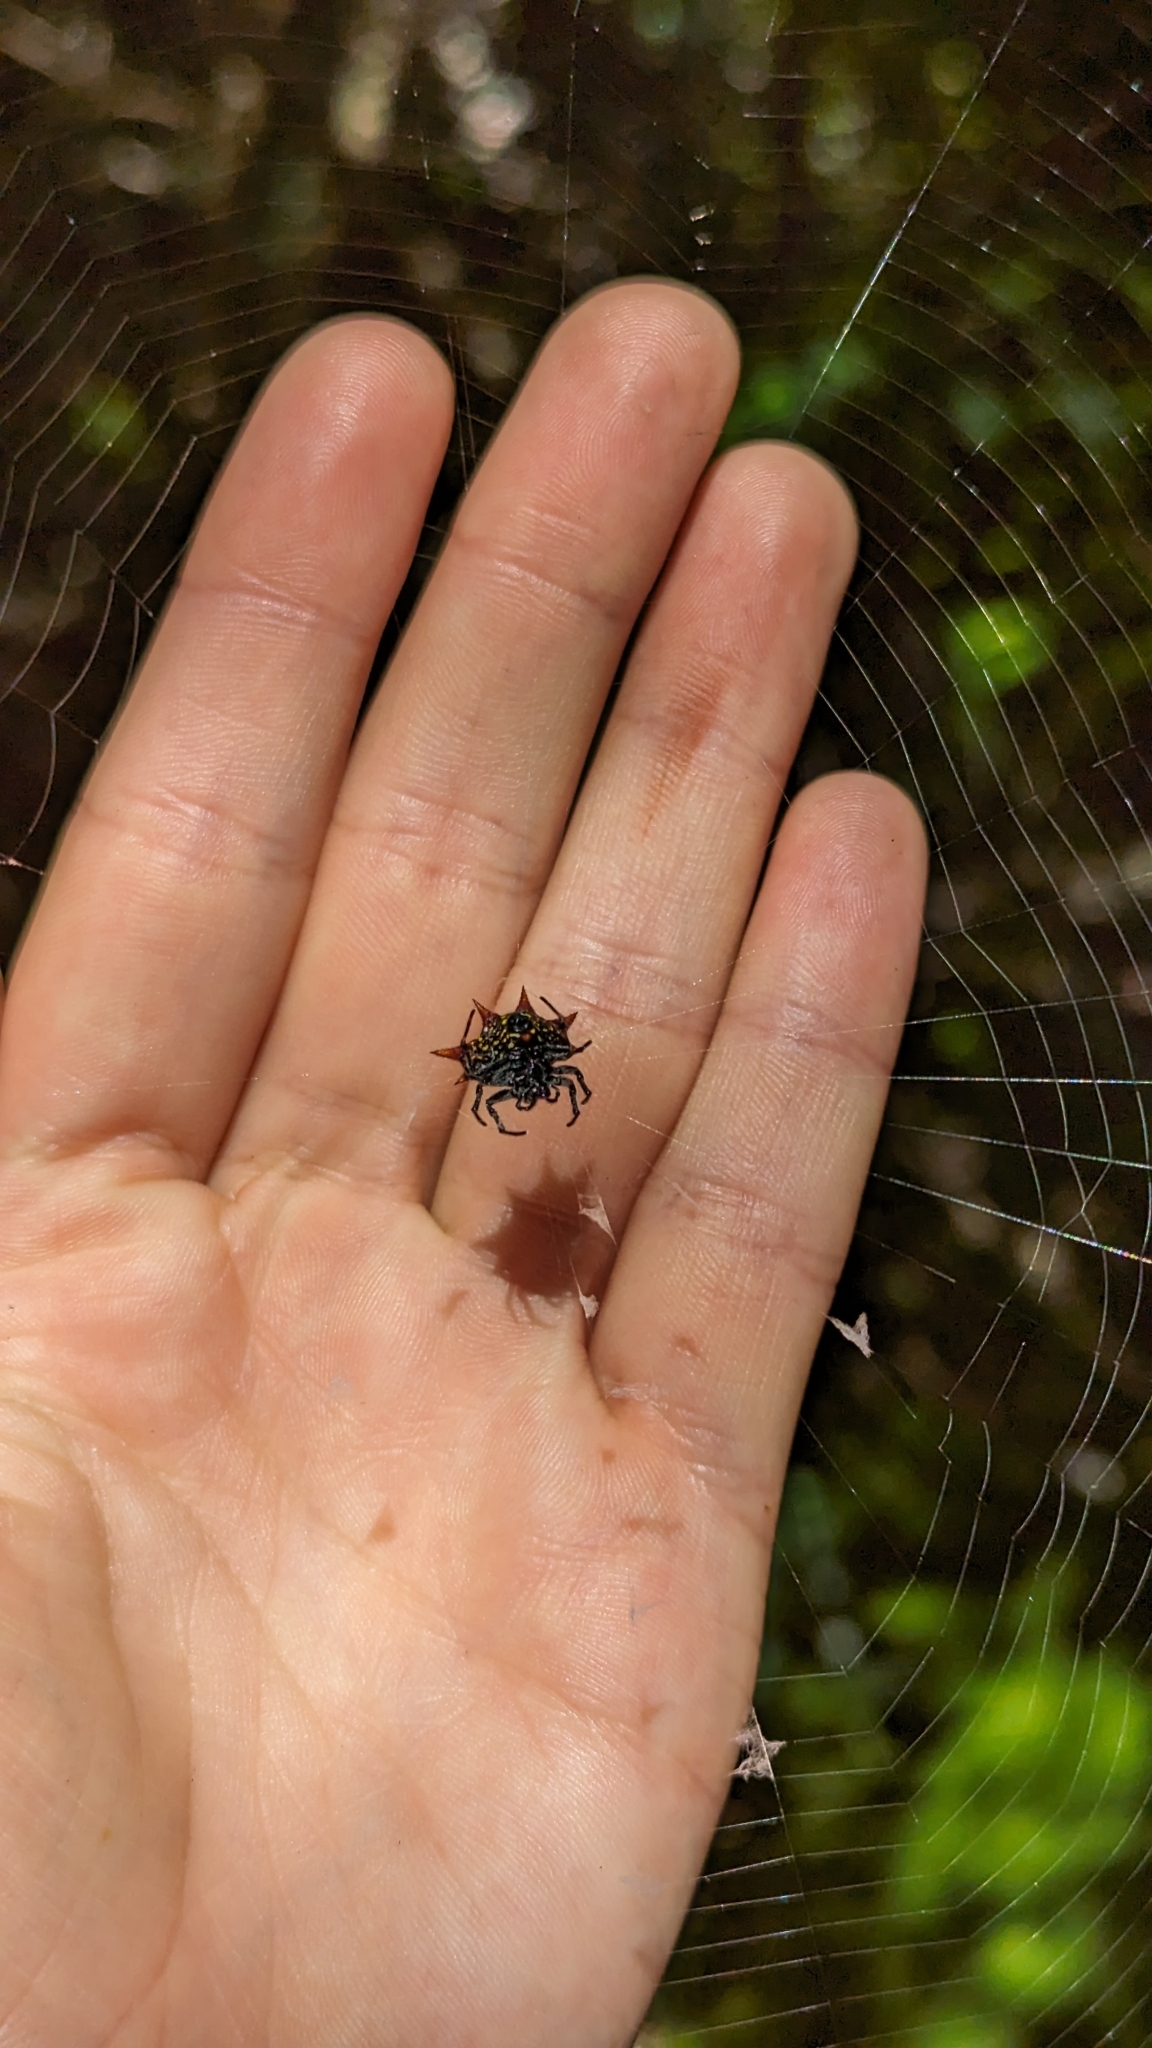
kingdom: Animalia
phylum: Arthropoda
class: Arachnida
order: Araneae
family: Araneidae
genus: Gasteracantha
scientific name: Gasteracantha cancriformis
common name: Orb weavers
